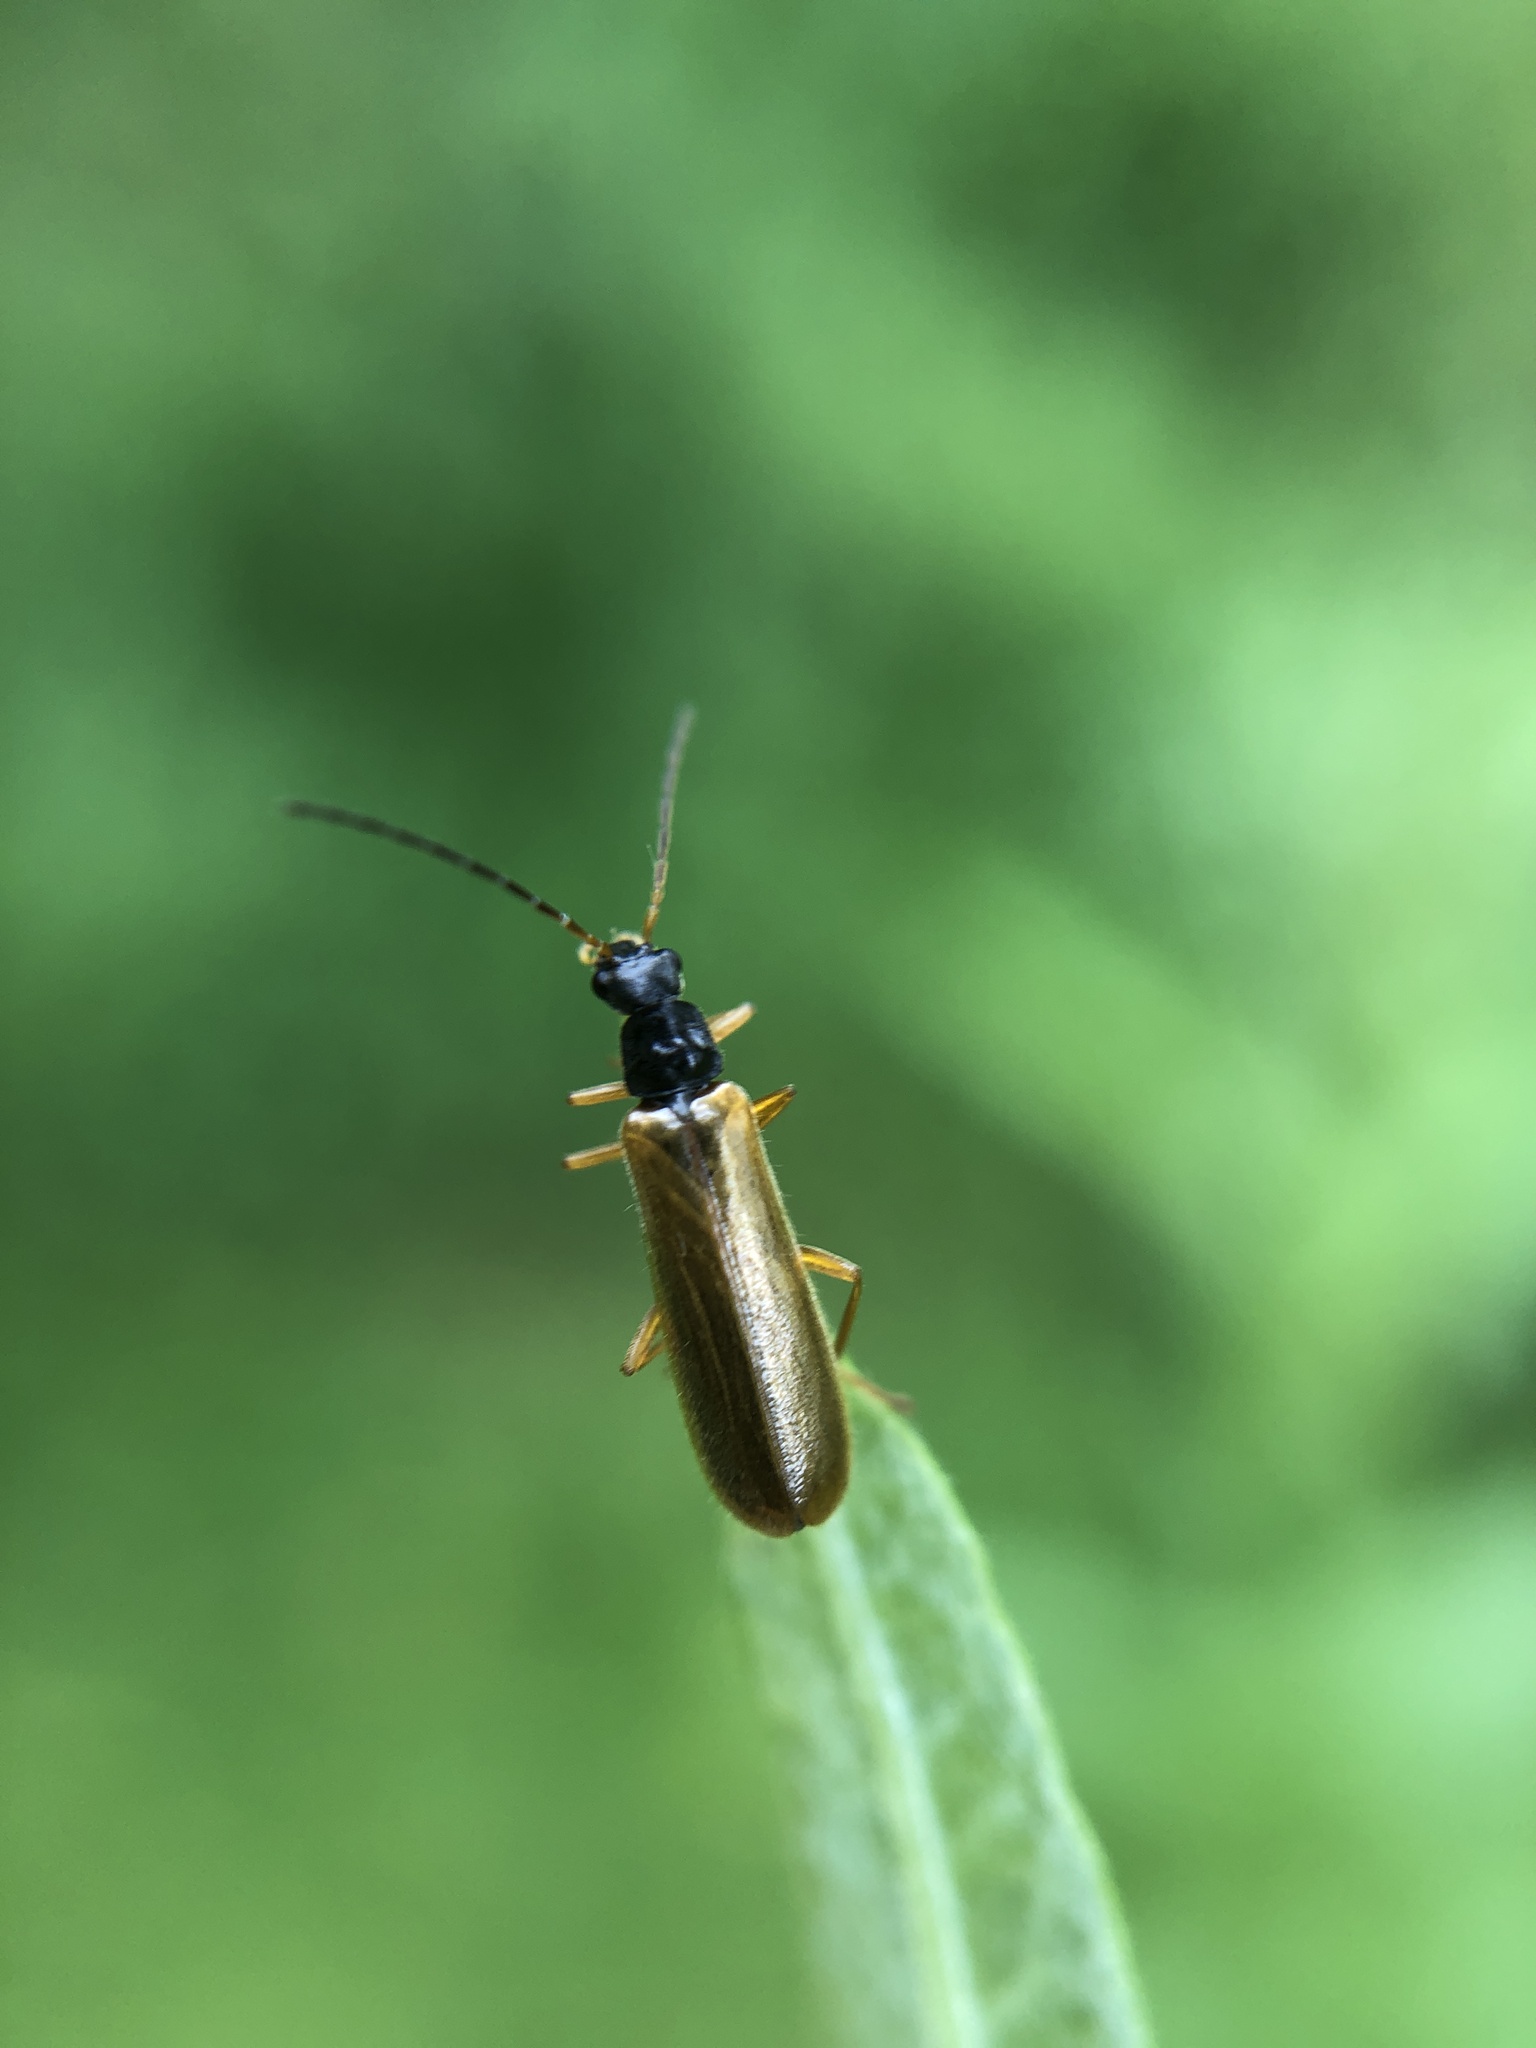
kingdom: Animalia
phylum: Arthropoda
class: Insecta
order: Coleoptera
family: Cantharidae
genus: Rhagonycha
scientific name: Rhagonycha lignosa
